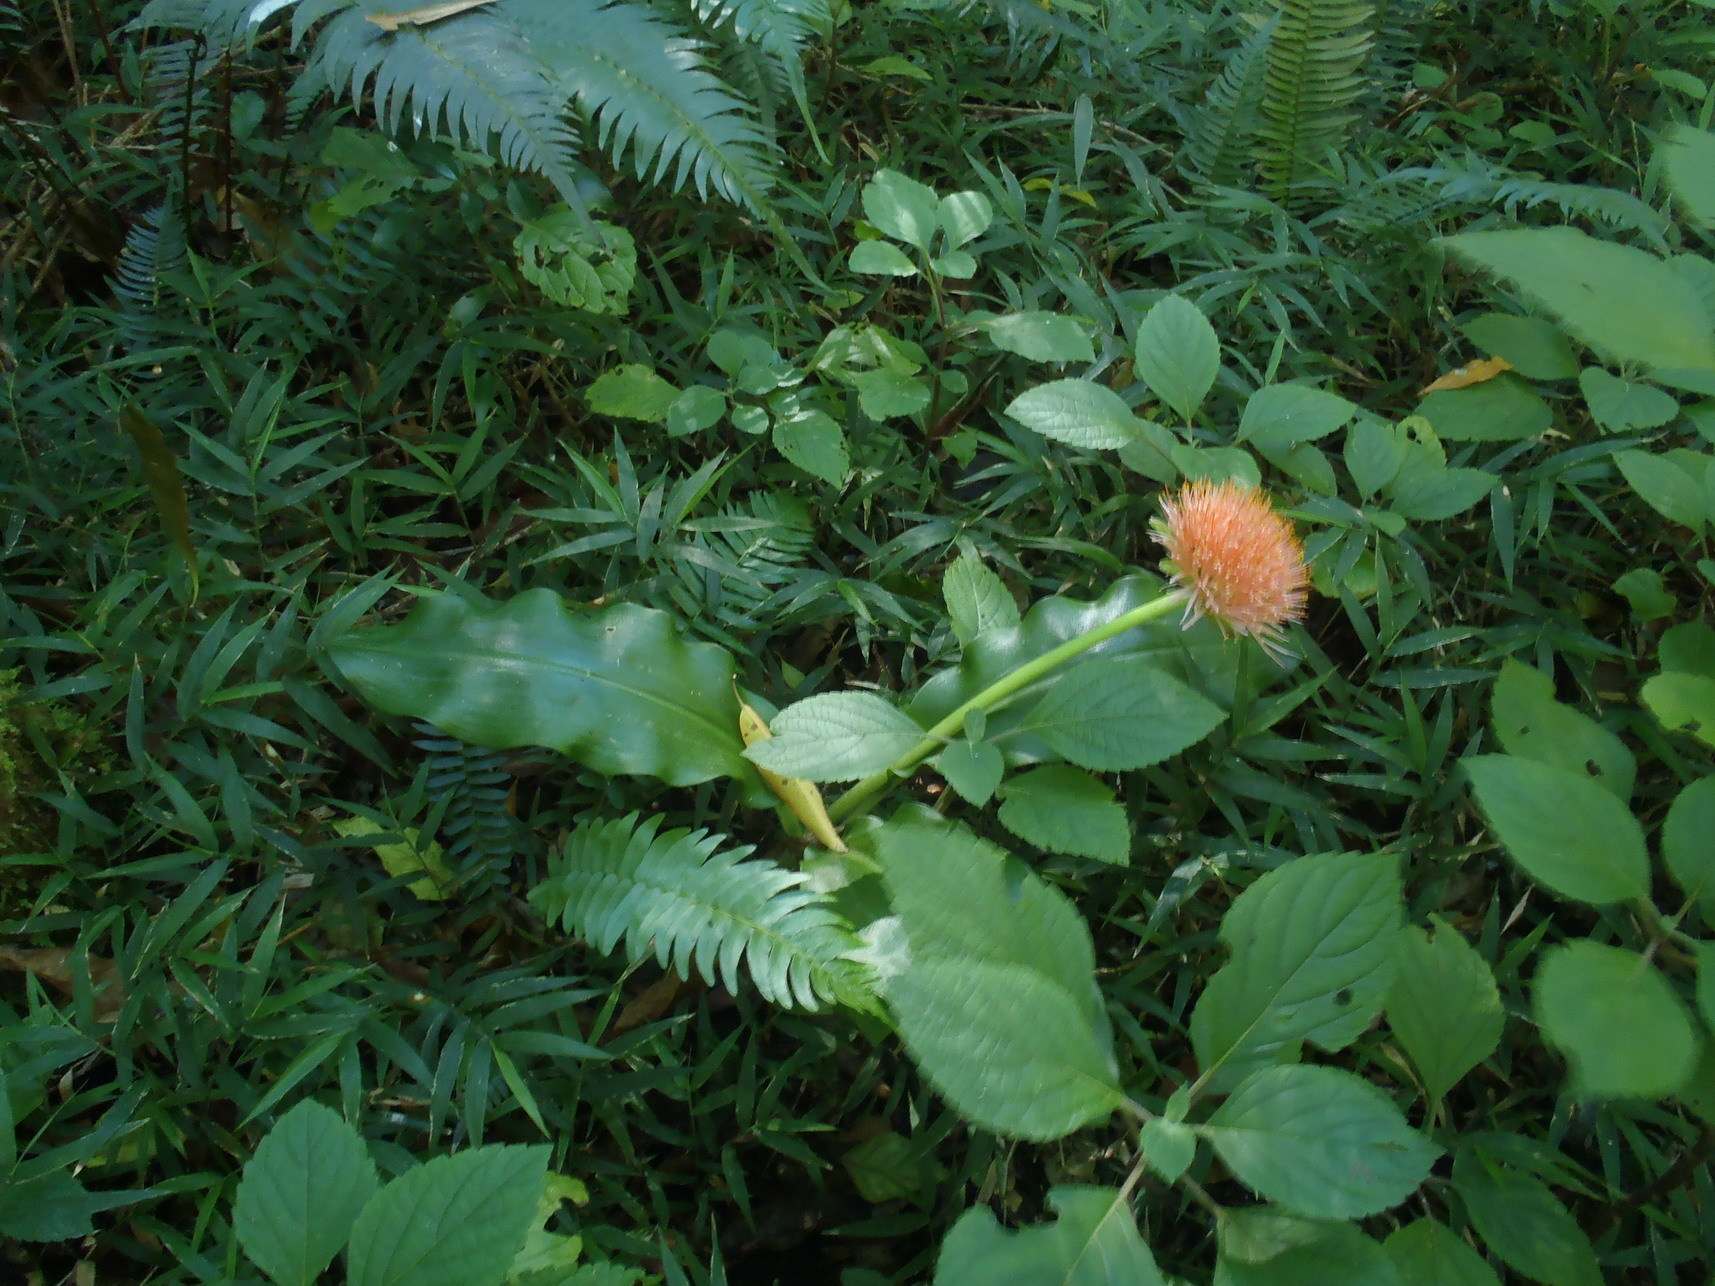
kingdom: Plantae
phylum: Tracheophyta
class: Liliopsida
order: Asparagales
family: Amaryllidaceae
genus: Scadoxus
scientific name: Scadoxus puniceus
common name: Royal-paintbrush
